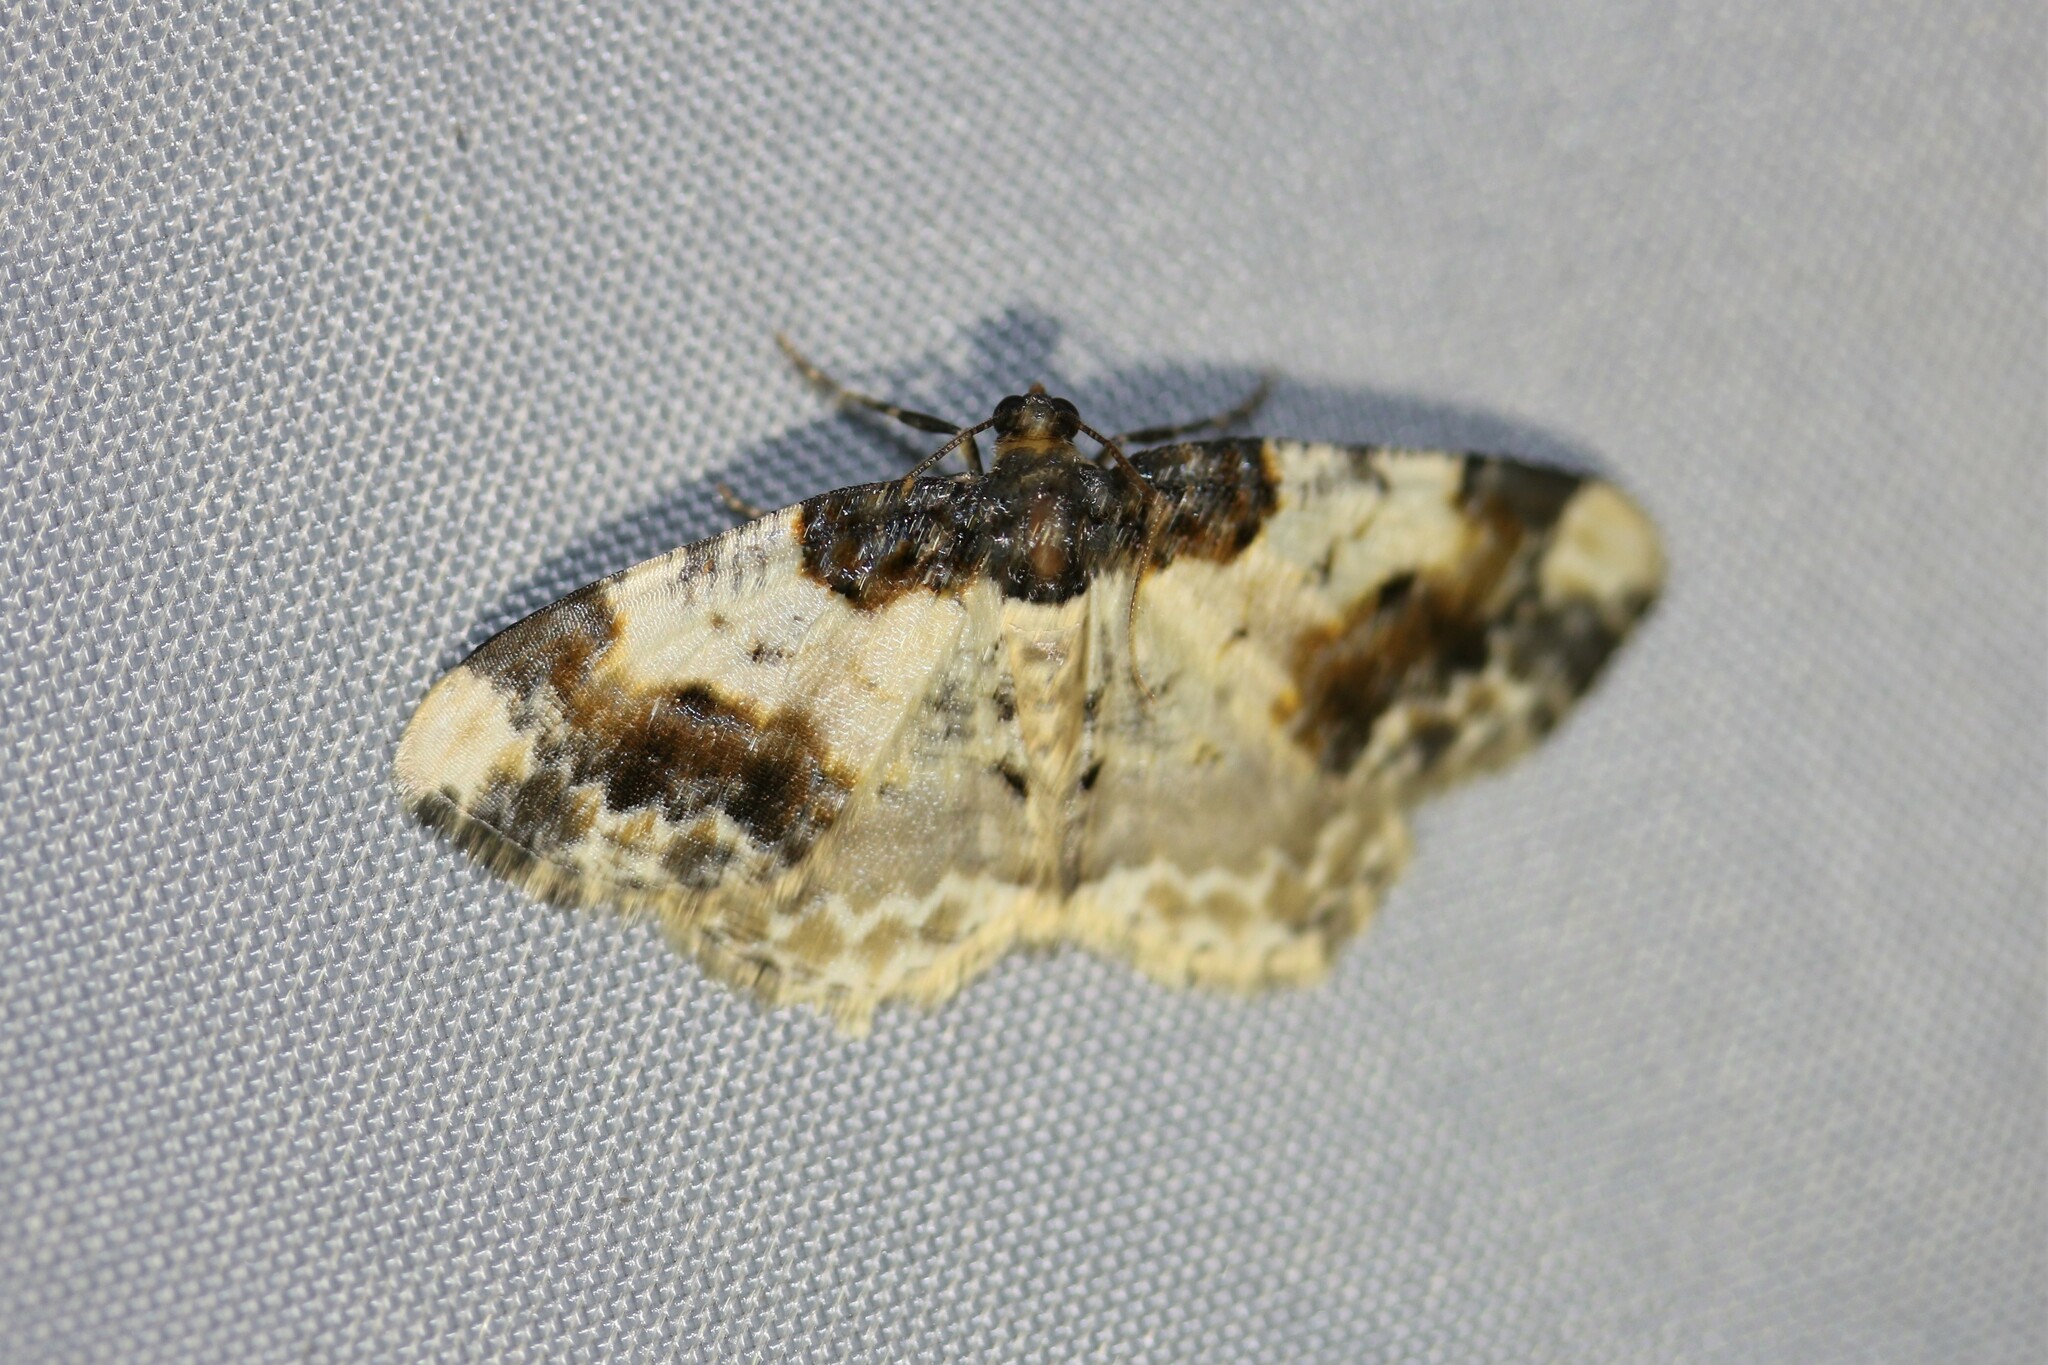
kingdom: Animalia
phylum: Arthropoda
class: Insecta
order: Lepidoptera
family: Geometridae
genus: Ligdia
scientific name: Ligdia adustata
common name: Scorched carpet
